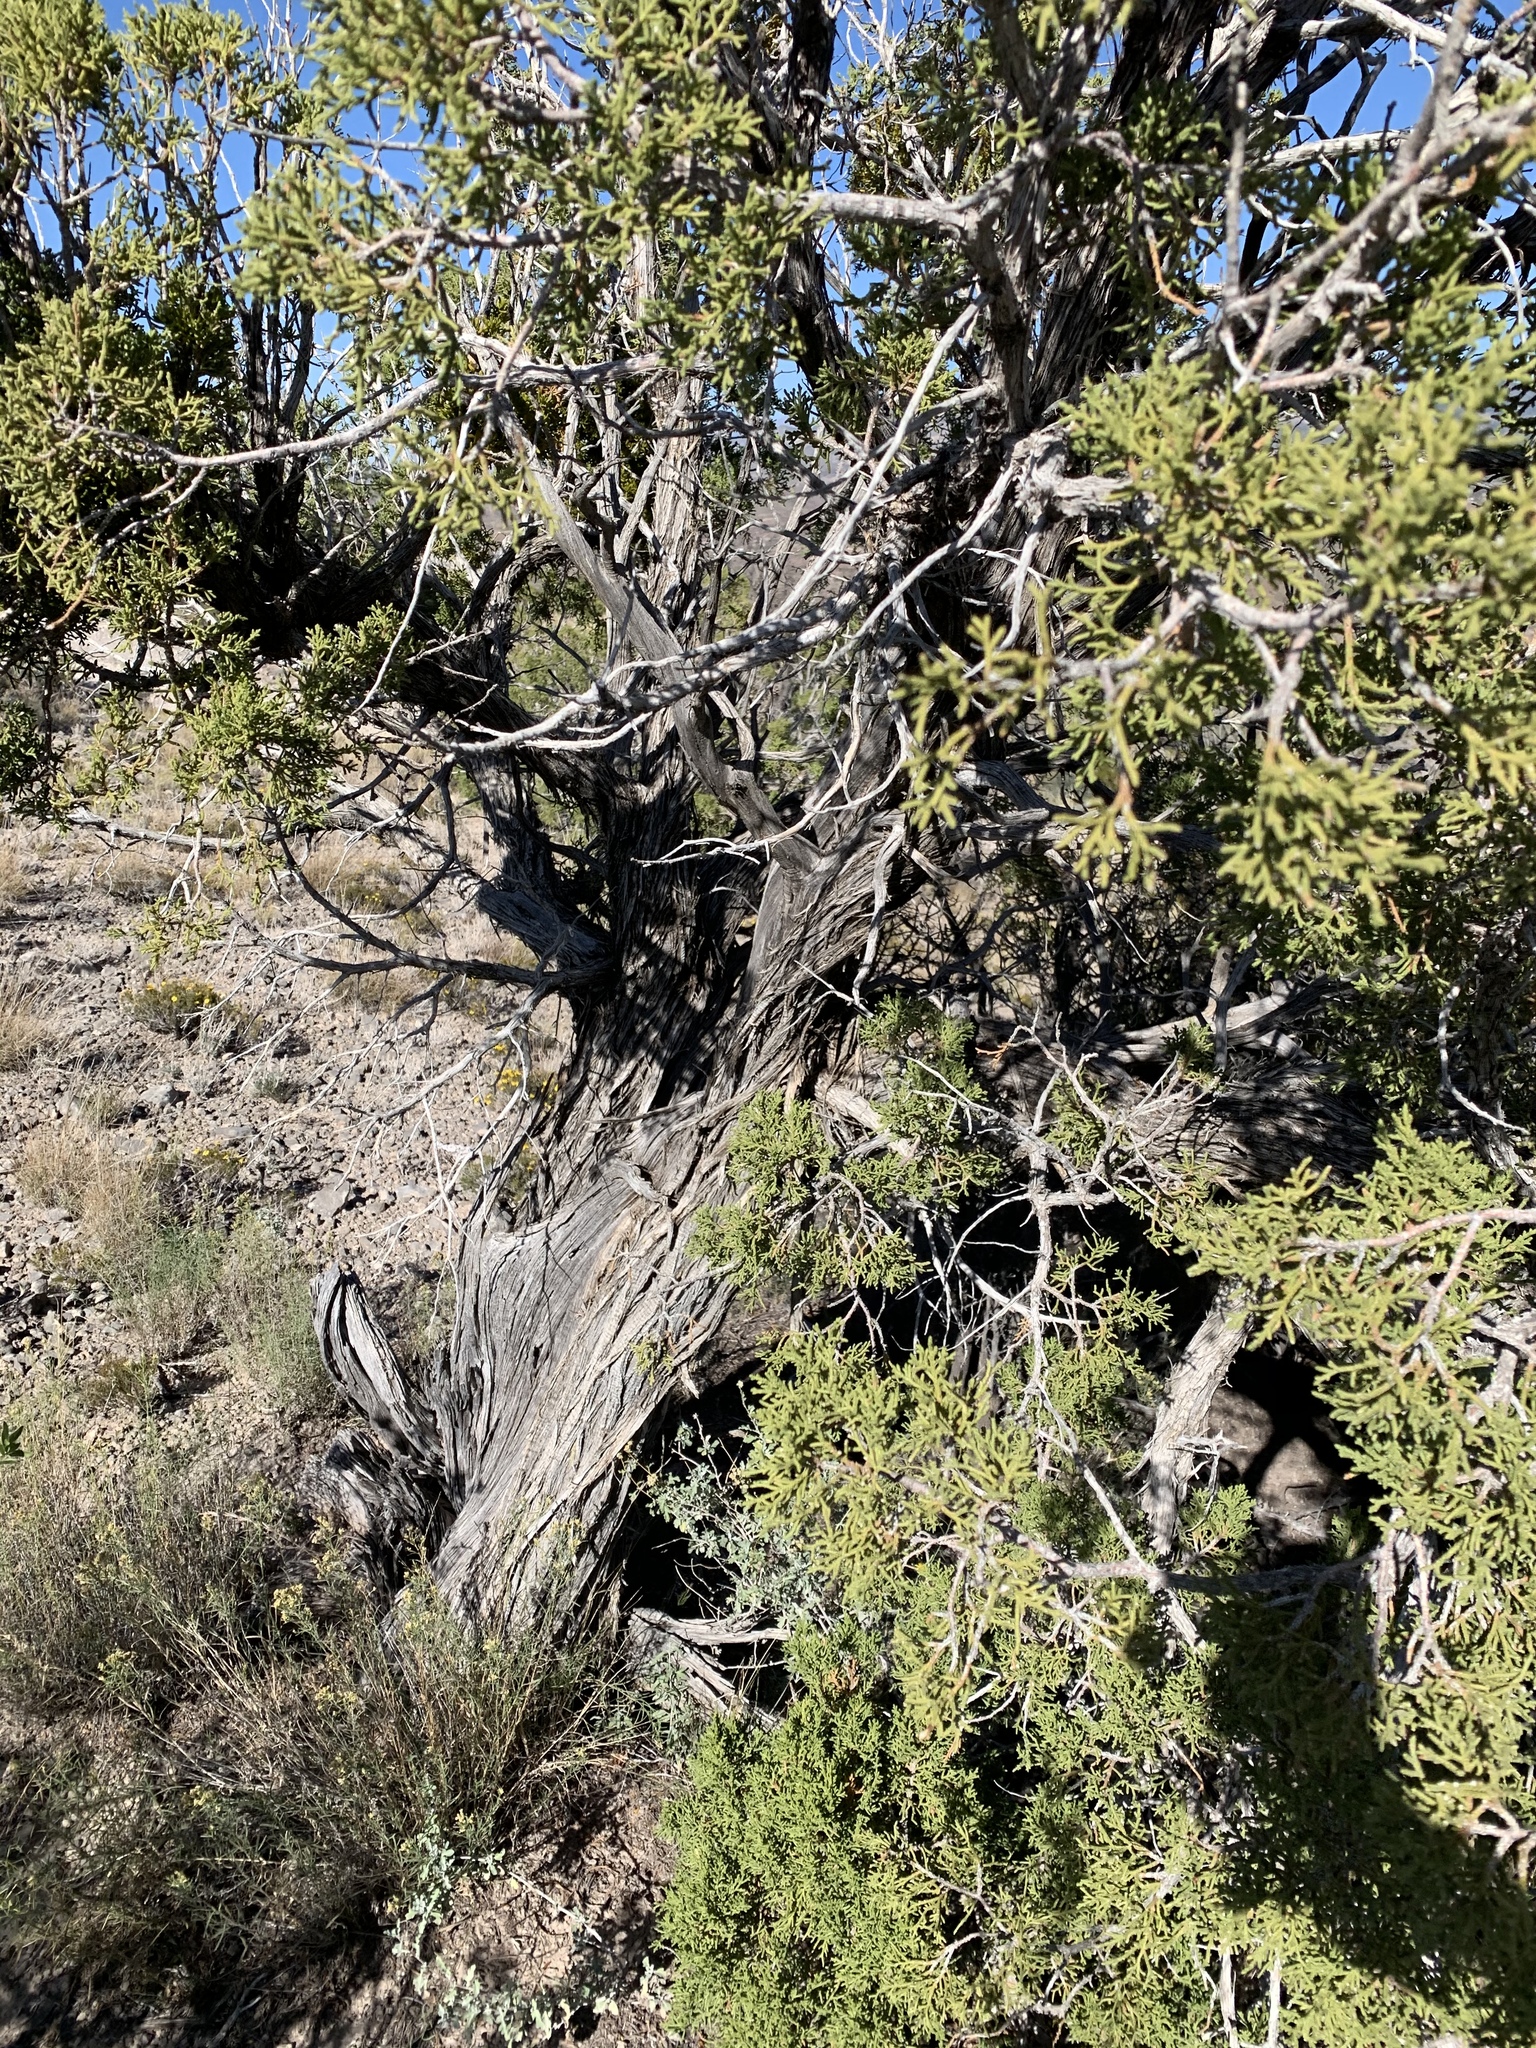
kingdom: Plantae
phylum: Tracheophyta
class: Pinopsida
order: Pinales
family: Cupressaceae
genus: Juniperus
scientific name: Juniperus monosperma
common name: One-seed juniper
